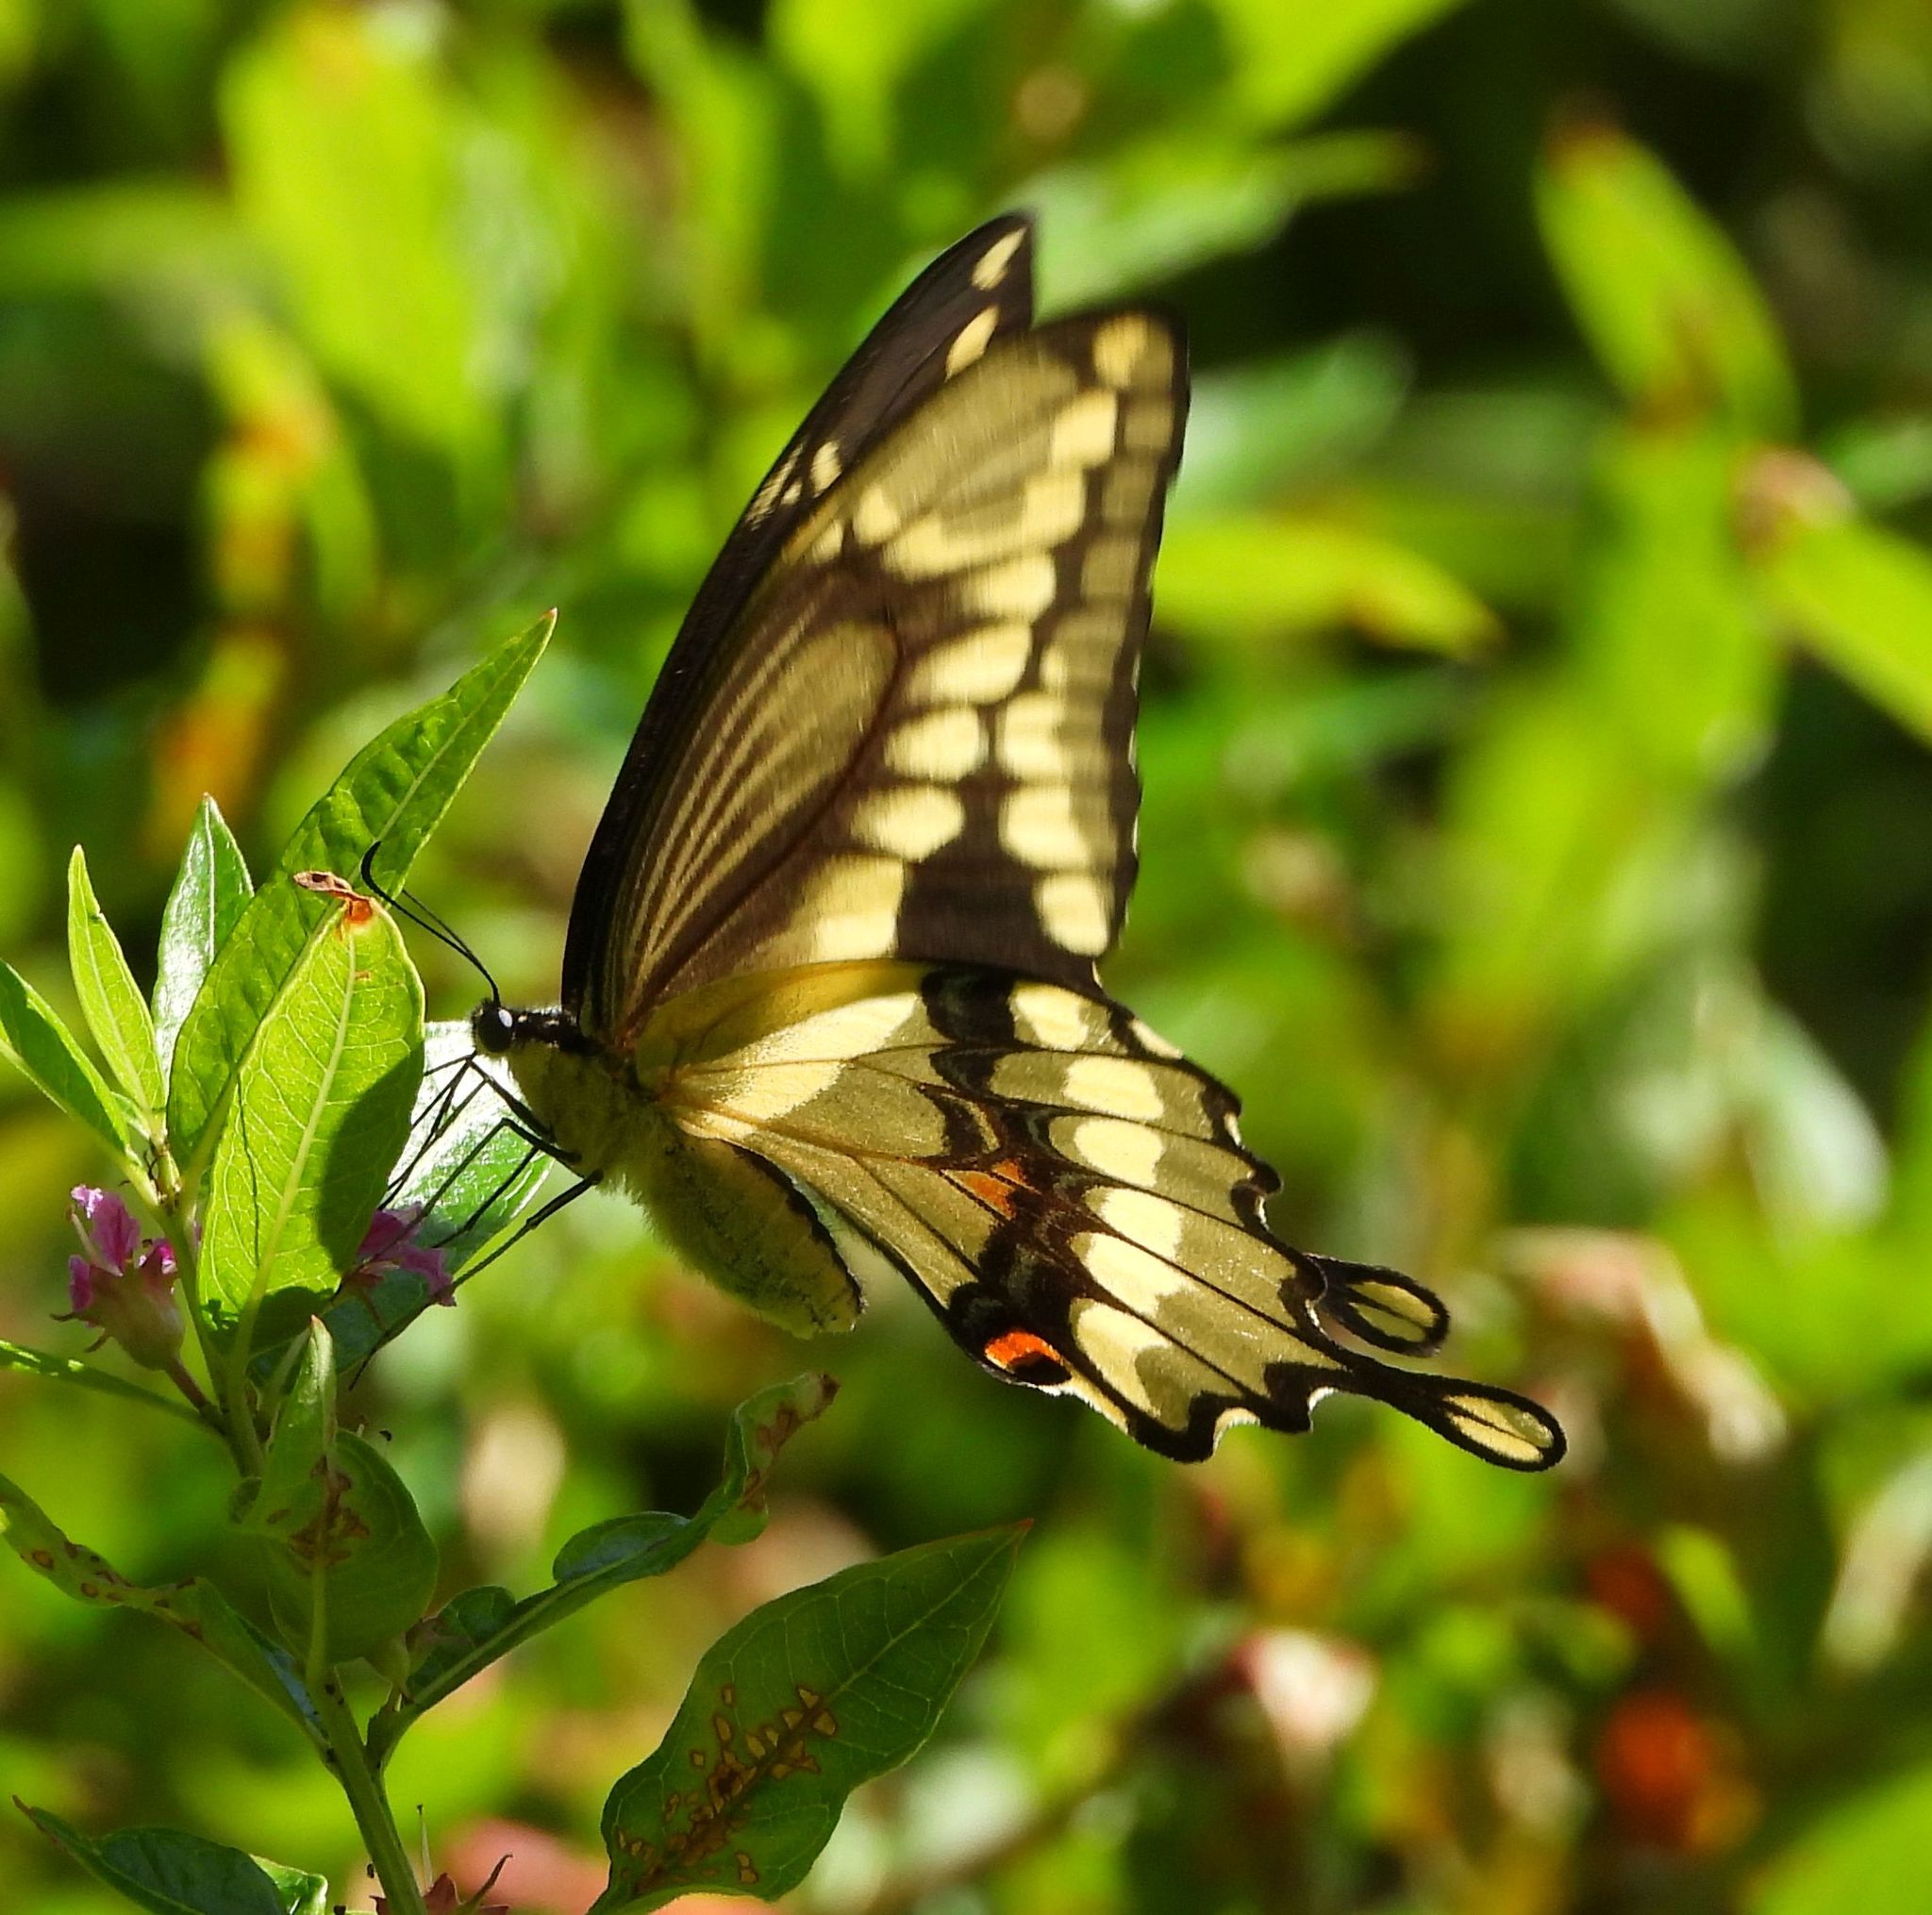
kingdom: Animalia
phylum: Arthropoda
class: Insecta
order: Lepidoptera
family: Papilionidae
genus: Papilio
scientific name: Papilio cresphontes
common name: Giant swallowtail
